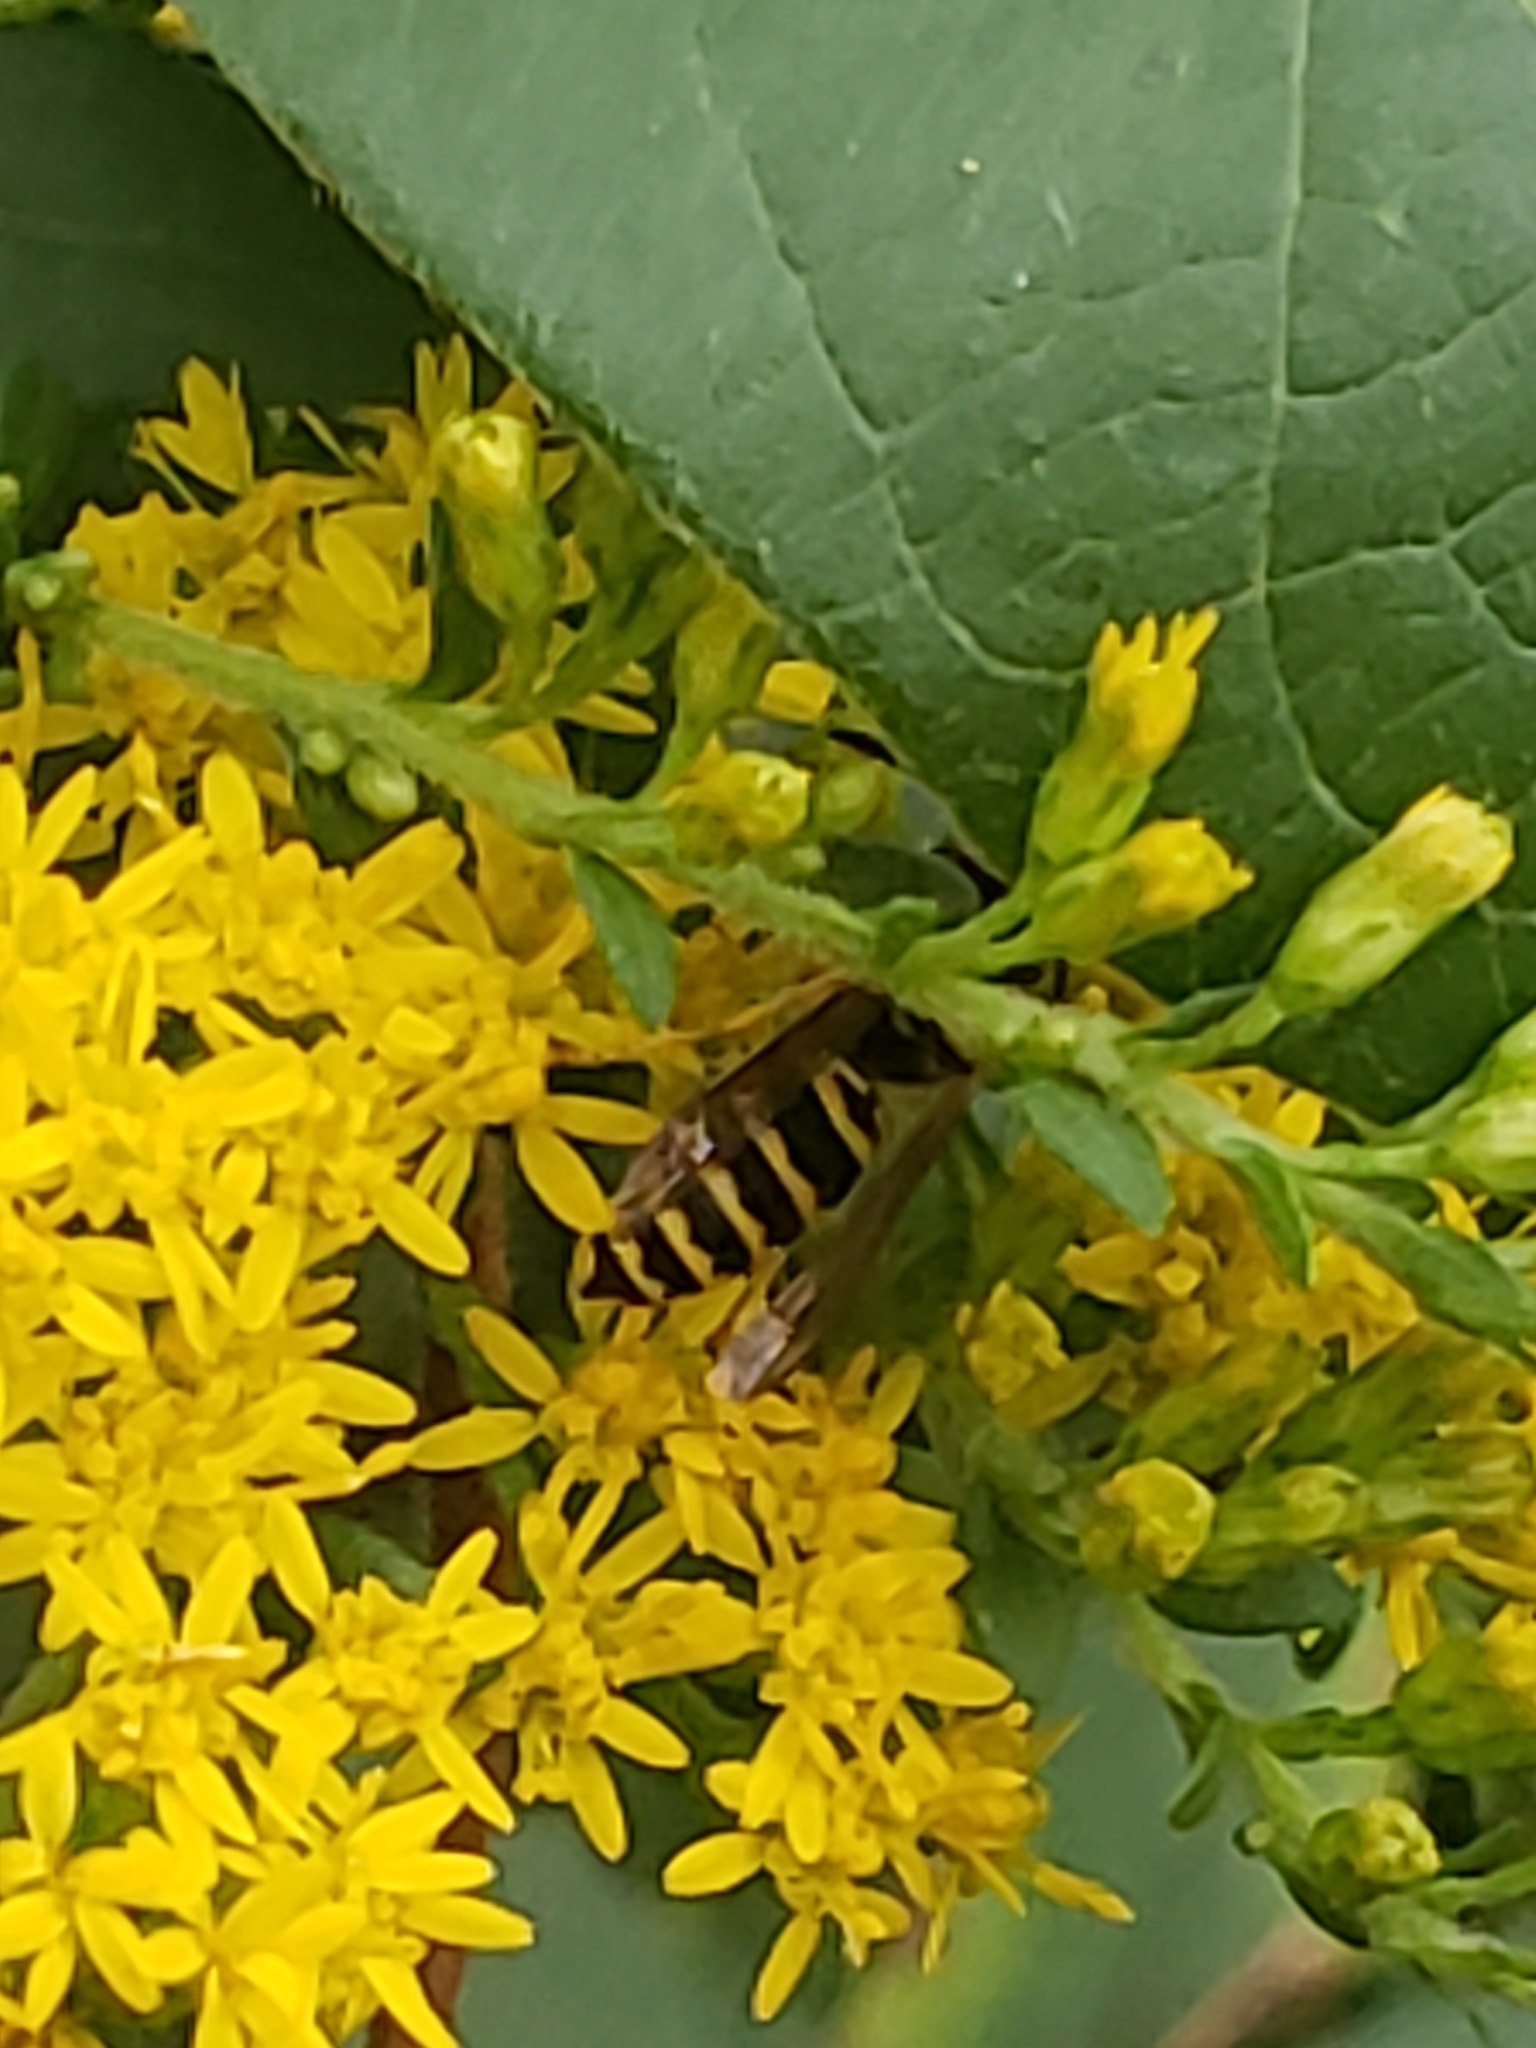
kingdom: Animalia
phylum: Arthropoda
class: Insecta
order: Hymenoptera
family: Vespidae
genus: Vespula
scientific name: Vespula maculifrons
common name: Eastern yellowjacket
